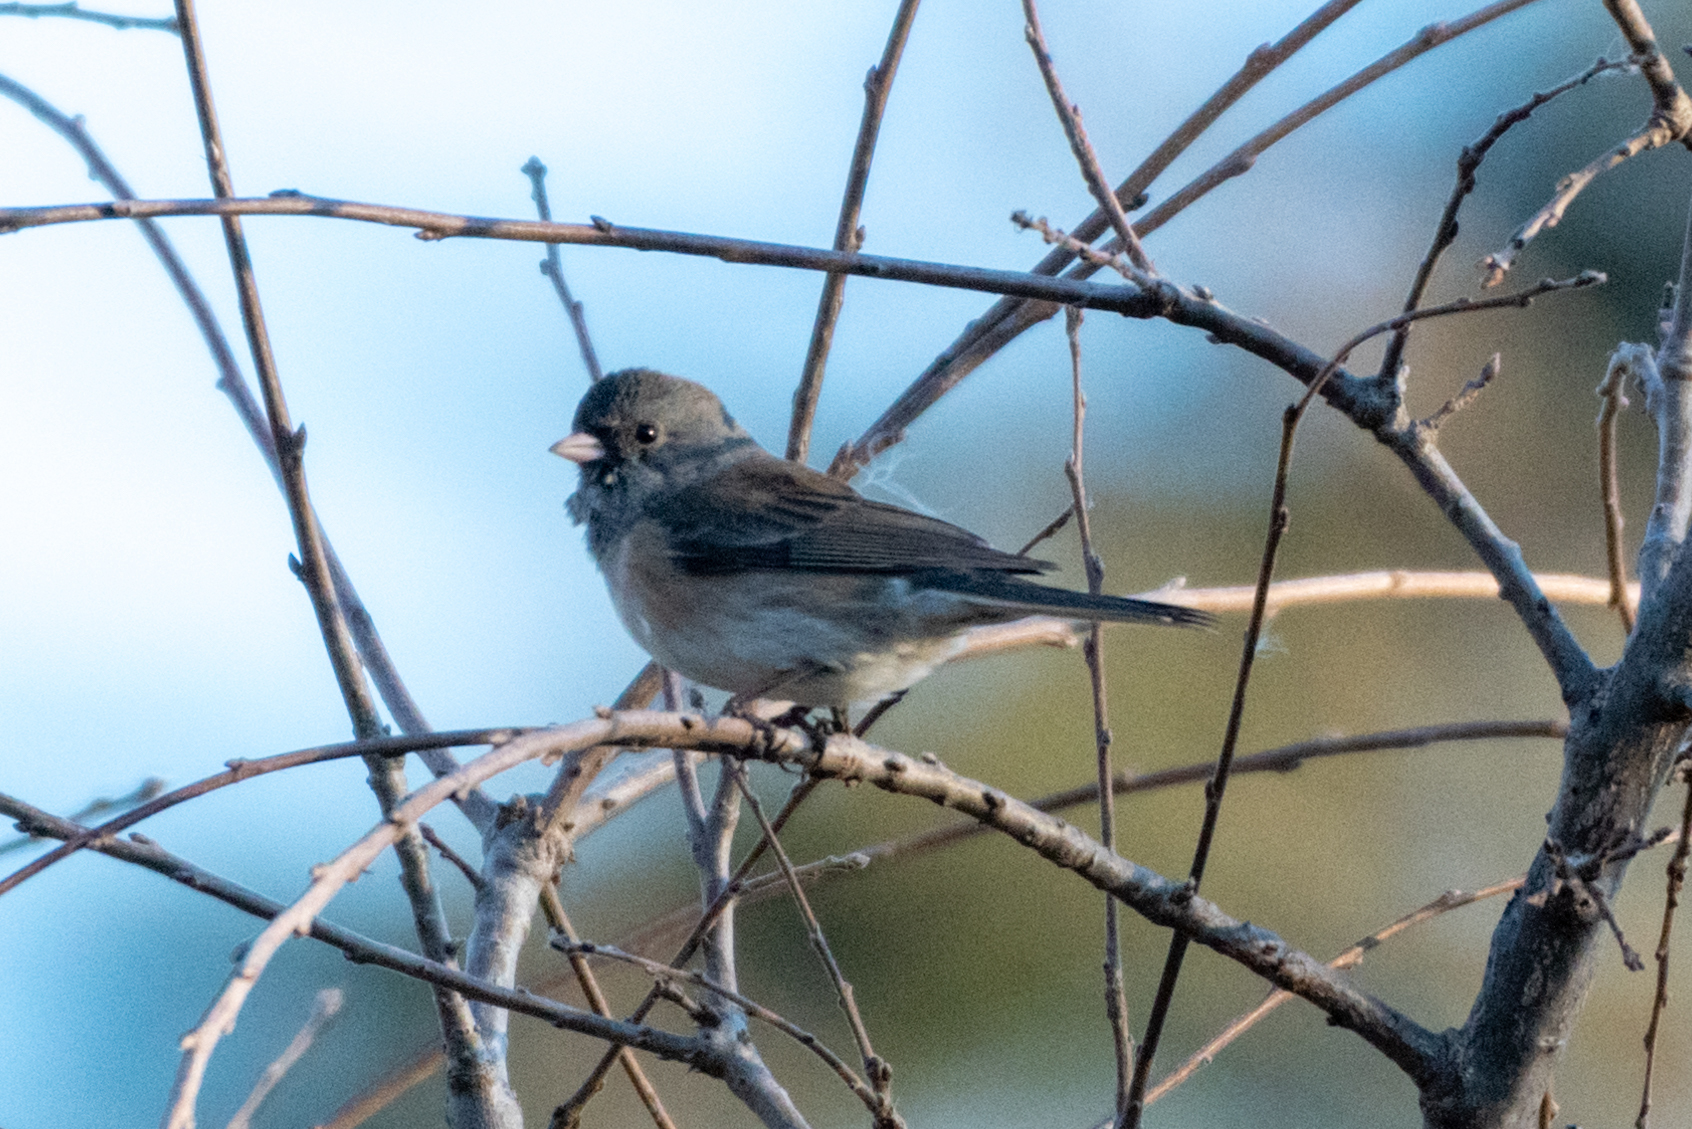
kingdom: Animalia
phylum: Chordata
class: Aves
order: Passeriformes
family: Passerellidae
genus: Junco
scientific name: Junco hyemalis
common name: Dark-eyed junco
